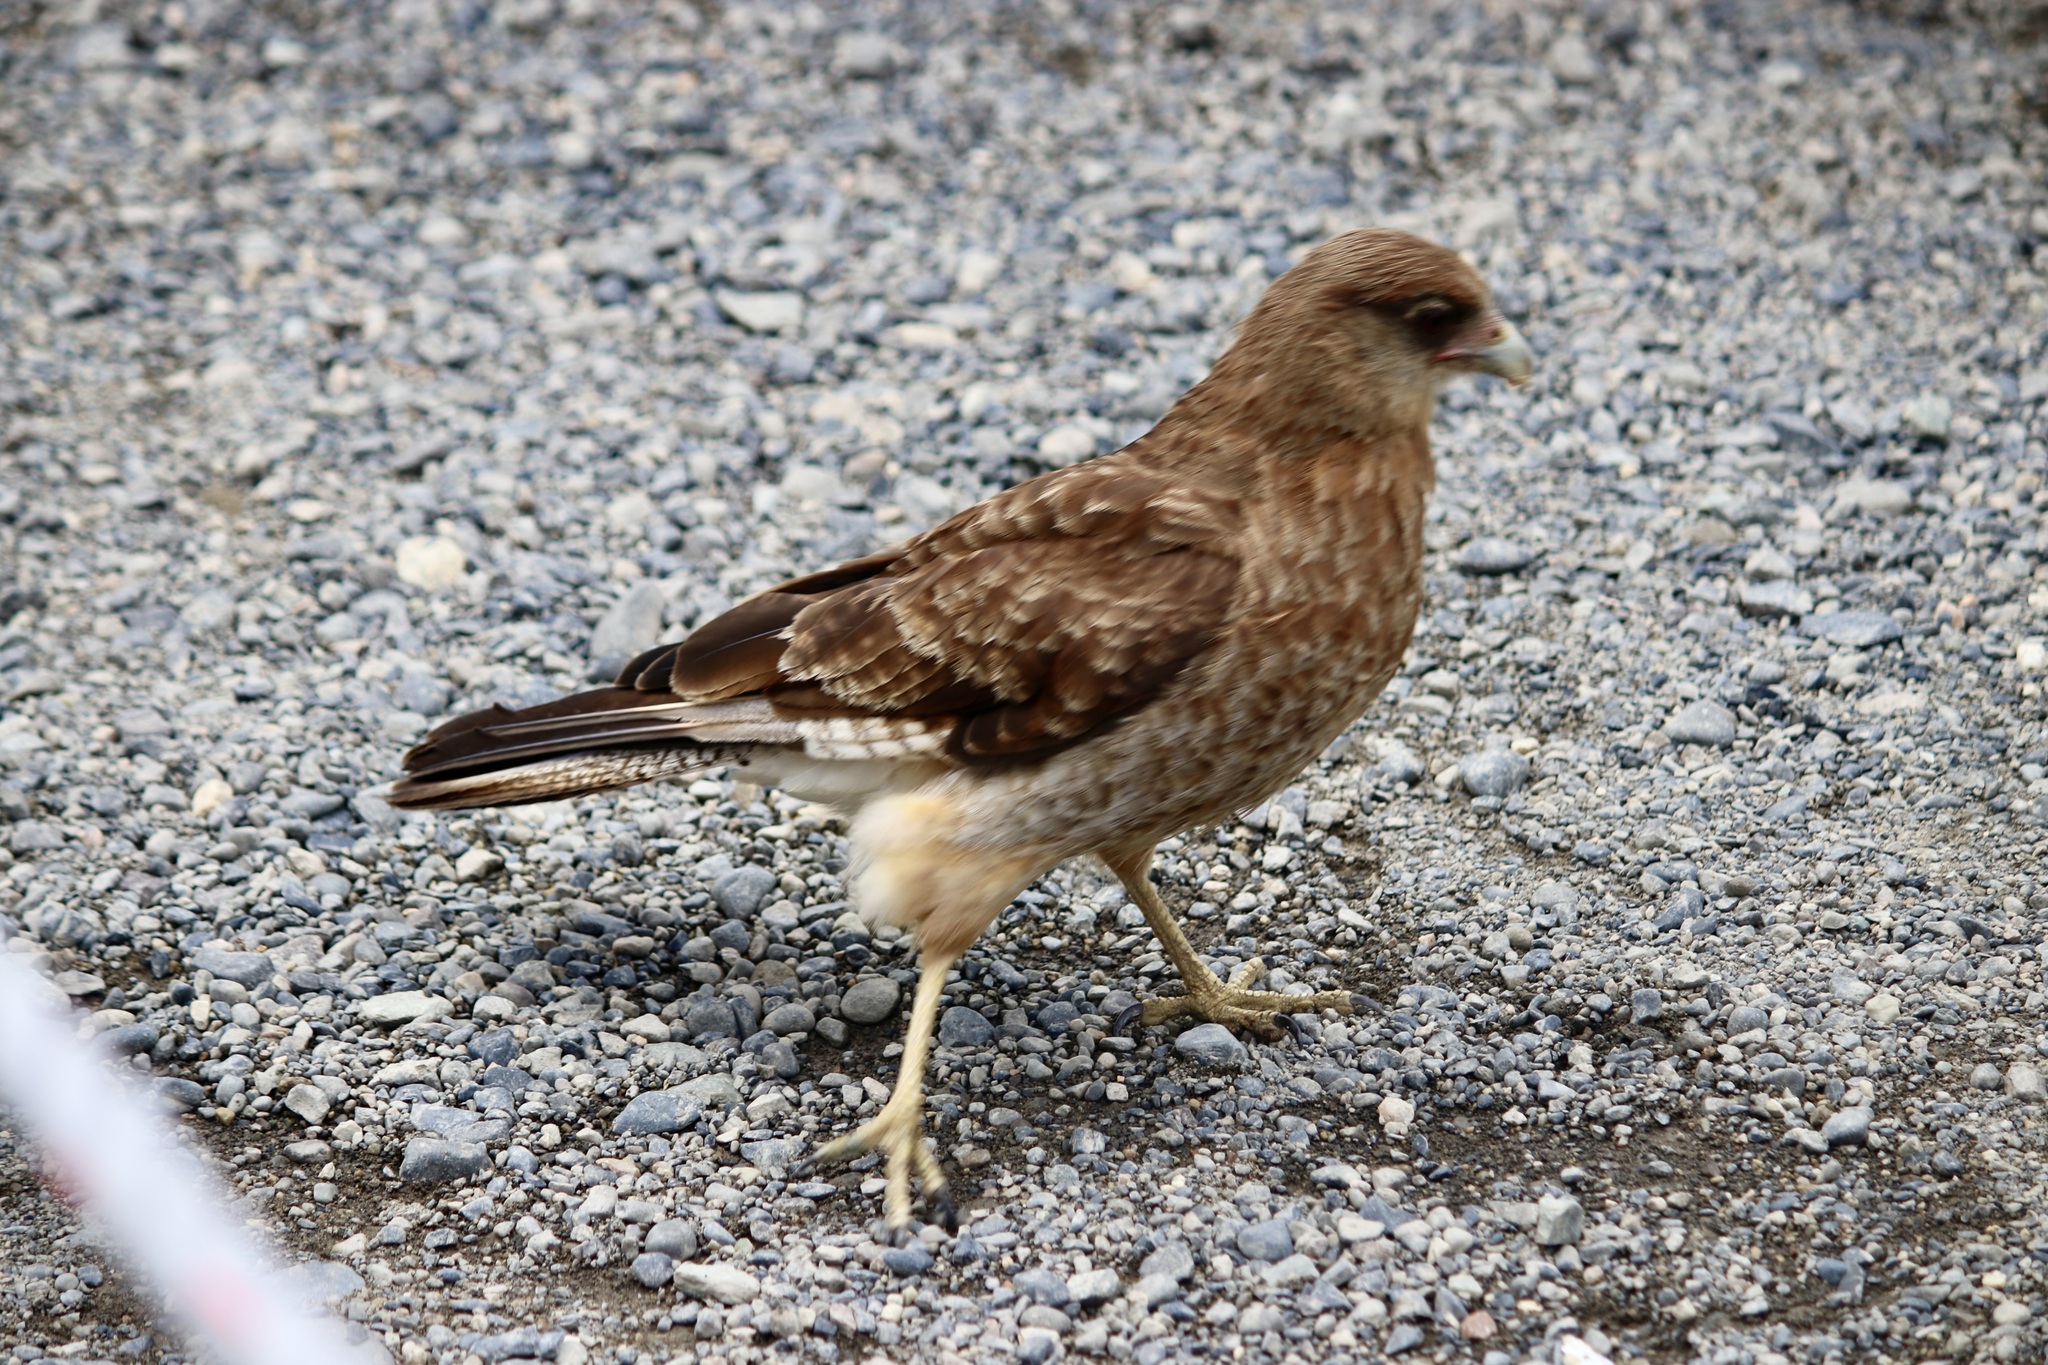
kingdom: Animalia
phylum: Chordata
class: Aves
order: Falconiformes
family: Falconidae
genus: Daptrius
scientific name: Daptrius
